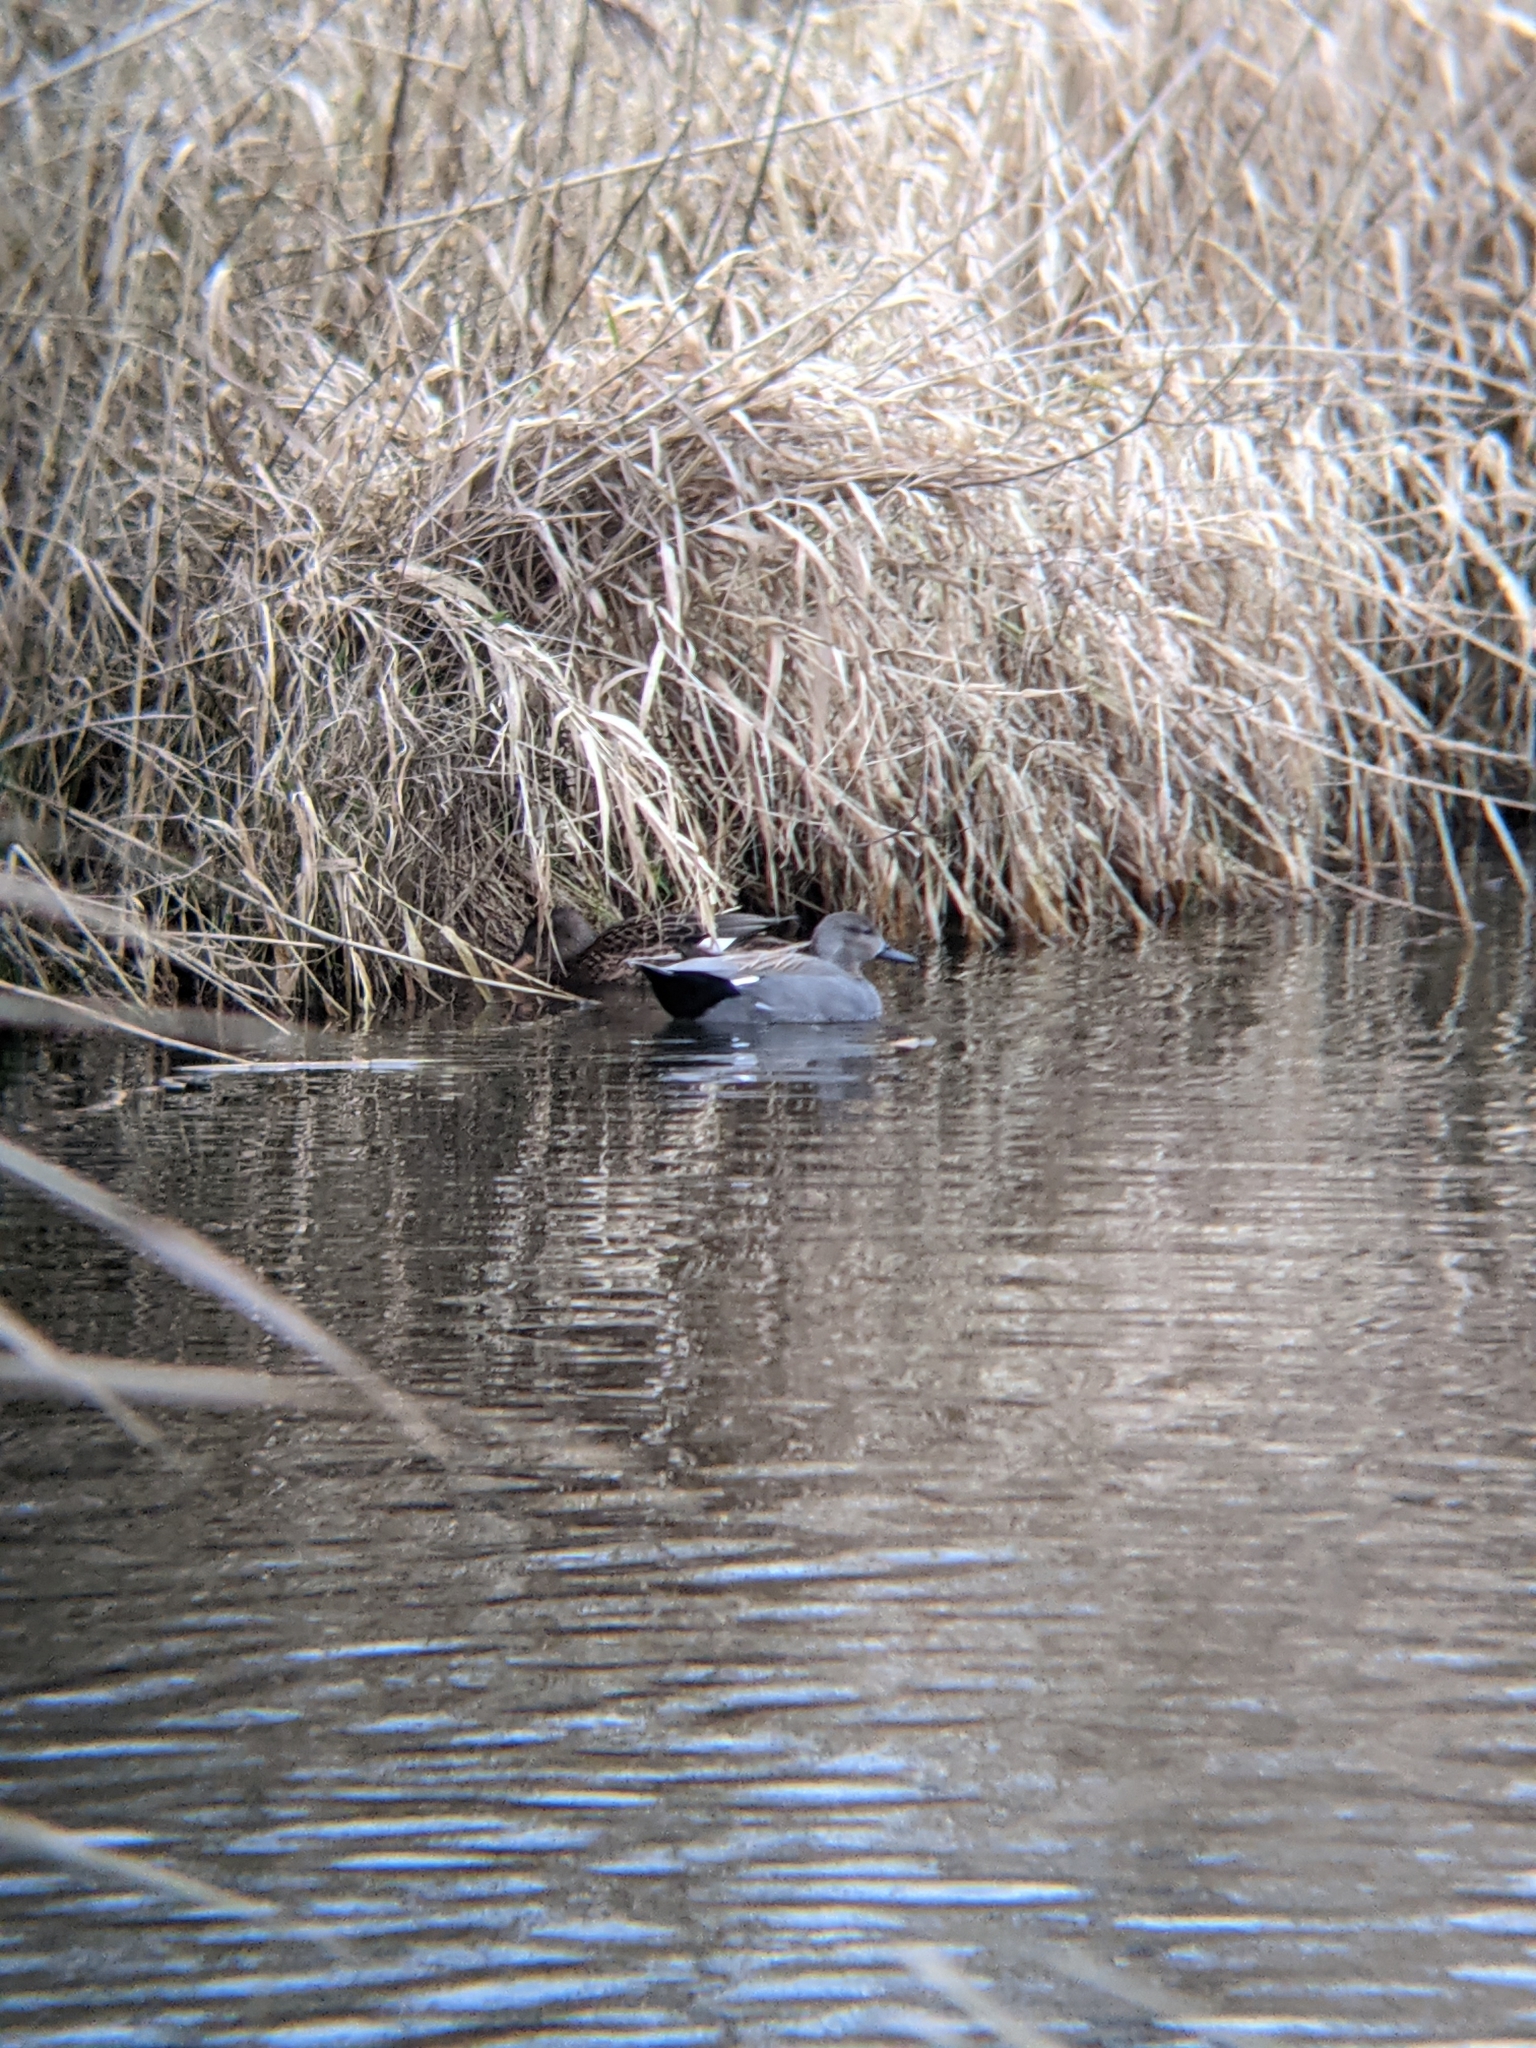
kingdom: Animalia
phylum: Chordata
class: Aves
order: Anseriformes
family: Anatidae
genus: Mareca
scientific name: Mareca strepera
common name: Gadwall
